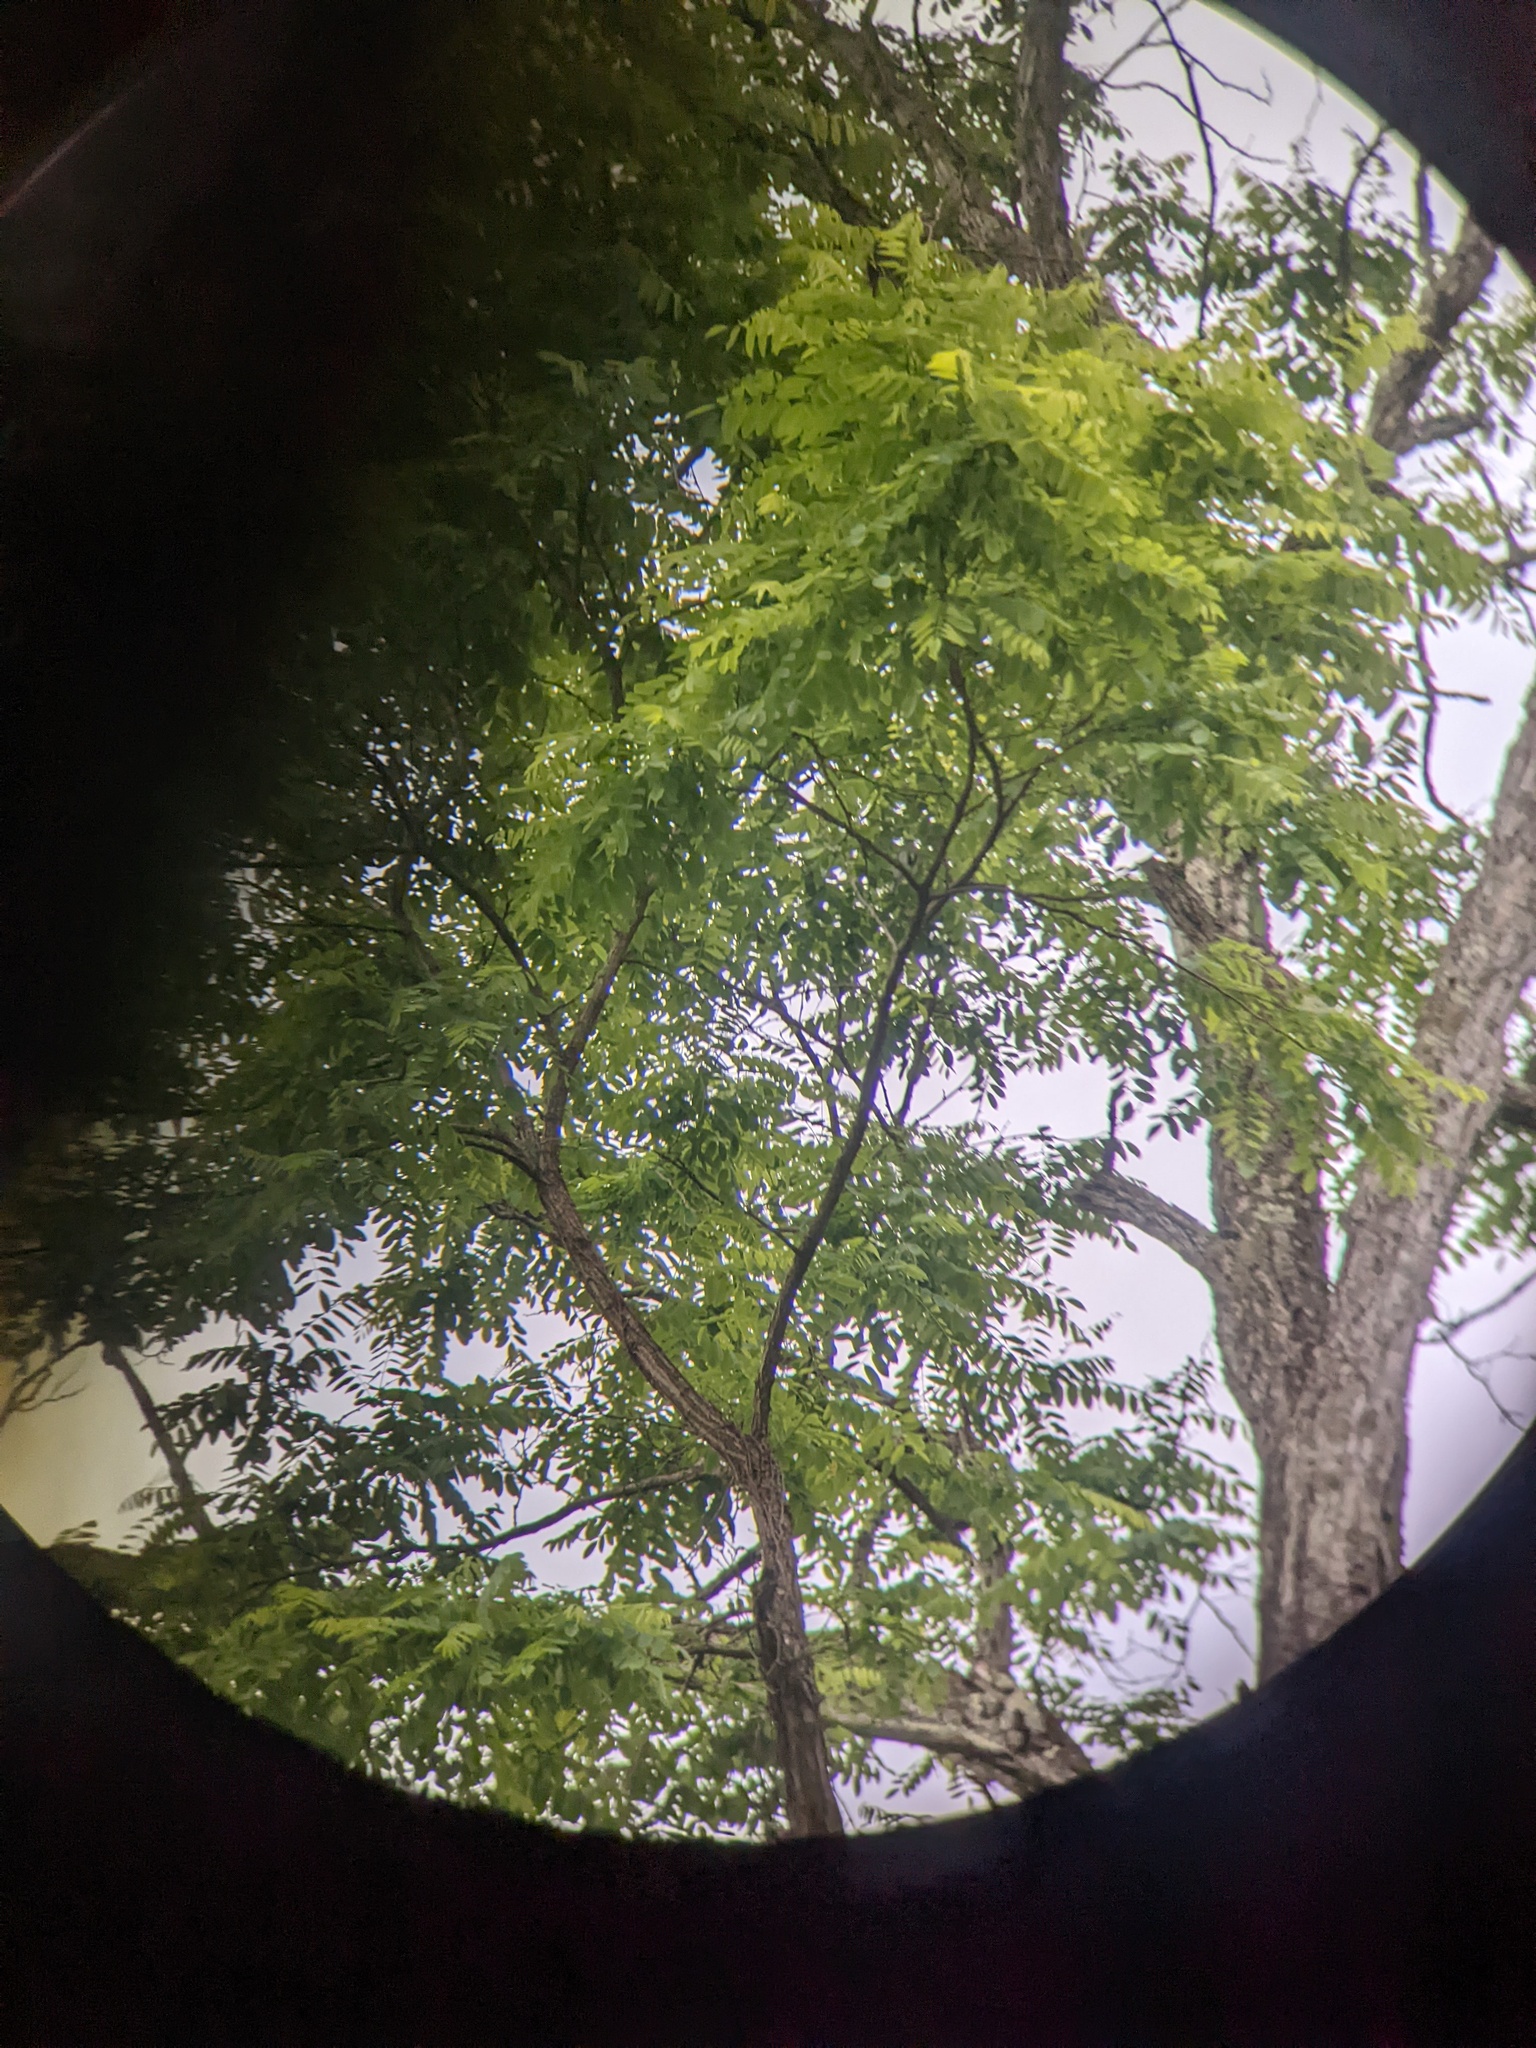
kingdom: Plantae
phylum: Tracheophyta
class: Magnoliopsida
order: Fabales
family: Fabaceae
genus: Robinia
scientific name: Robinia pseudoacacia
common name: Black locust
